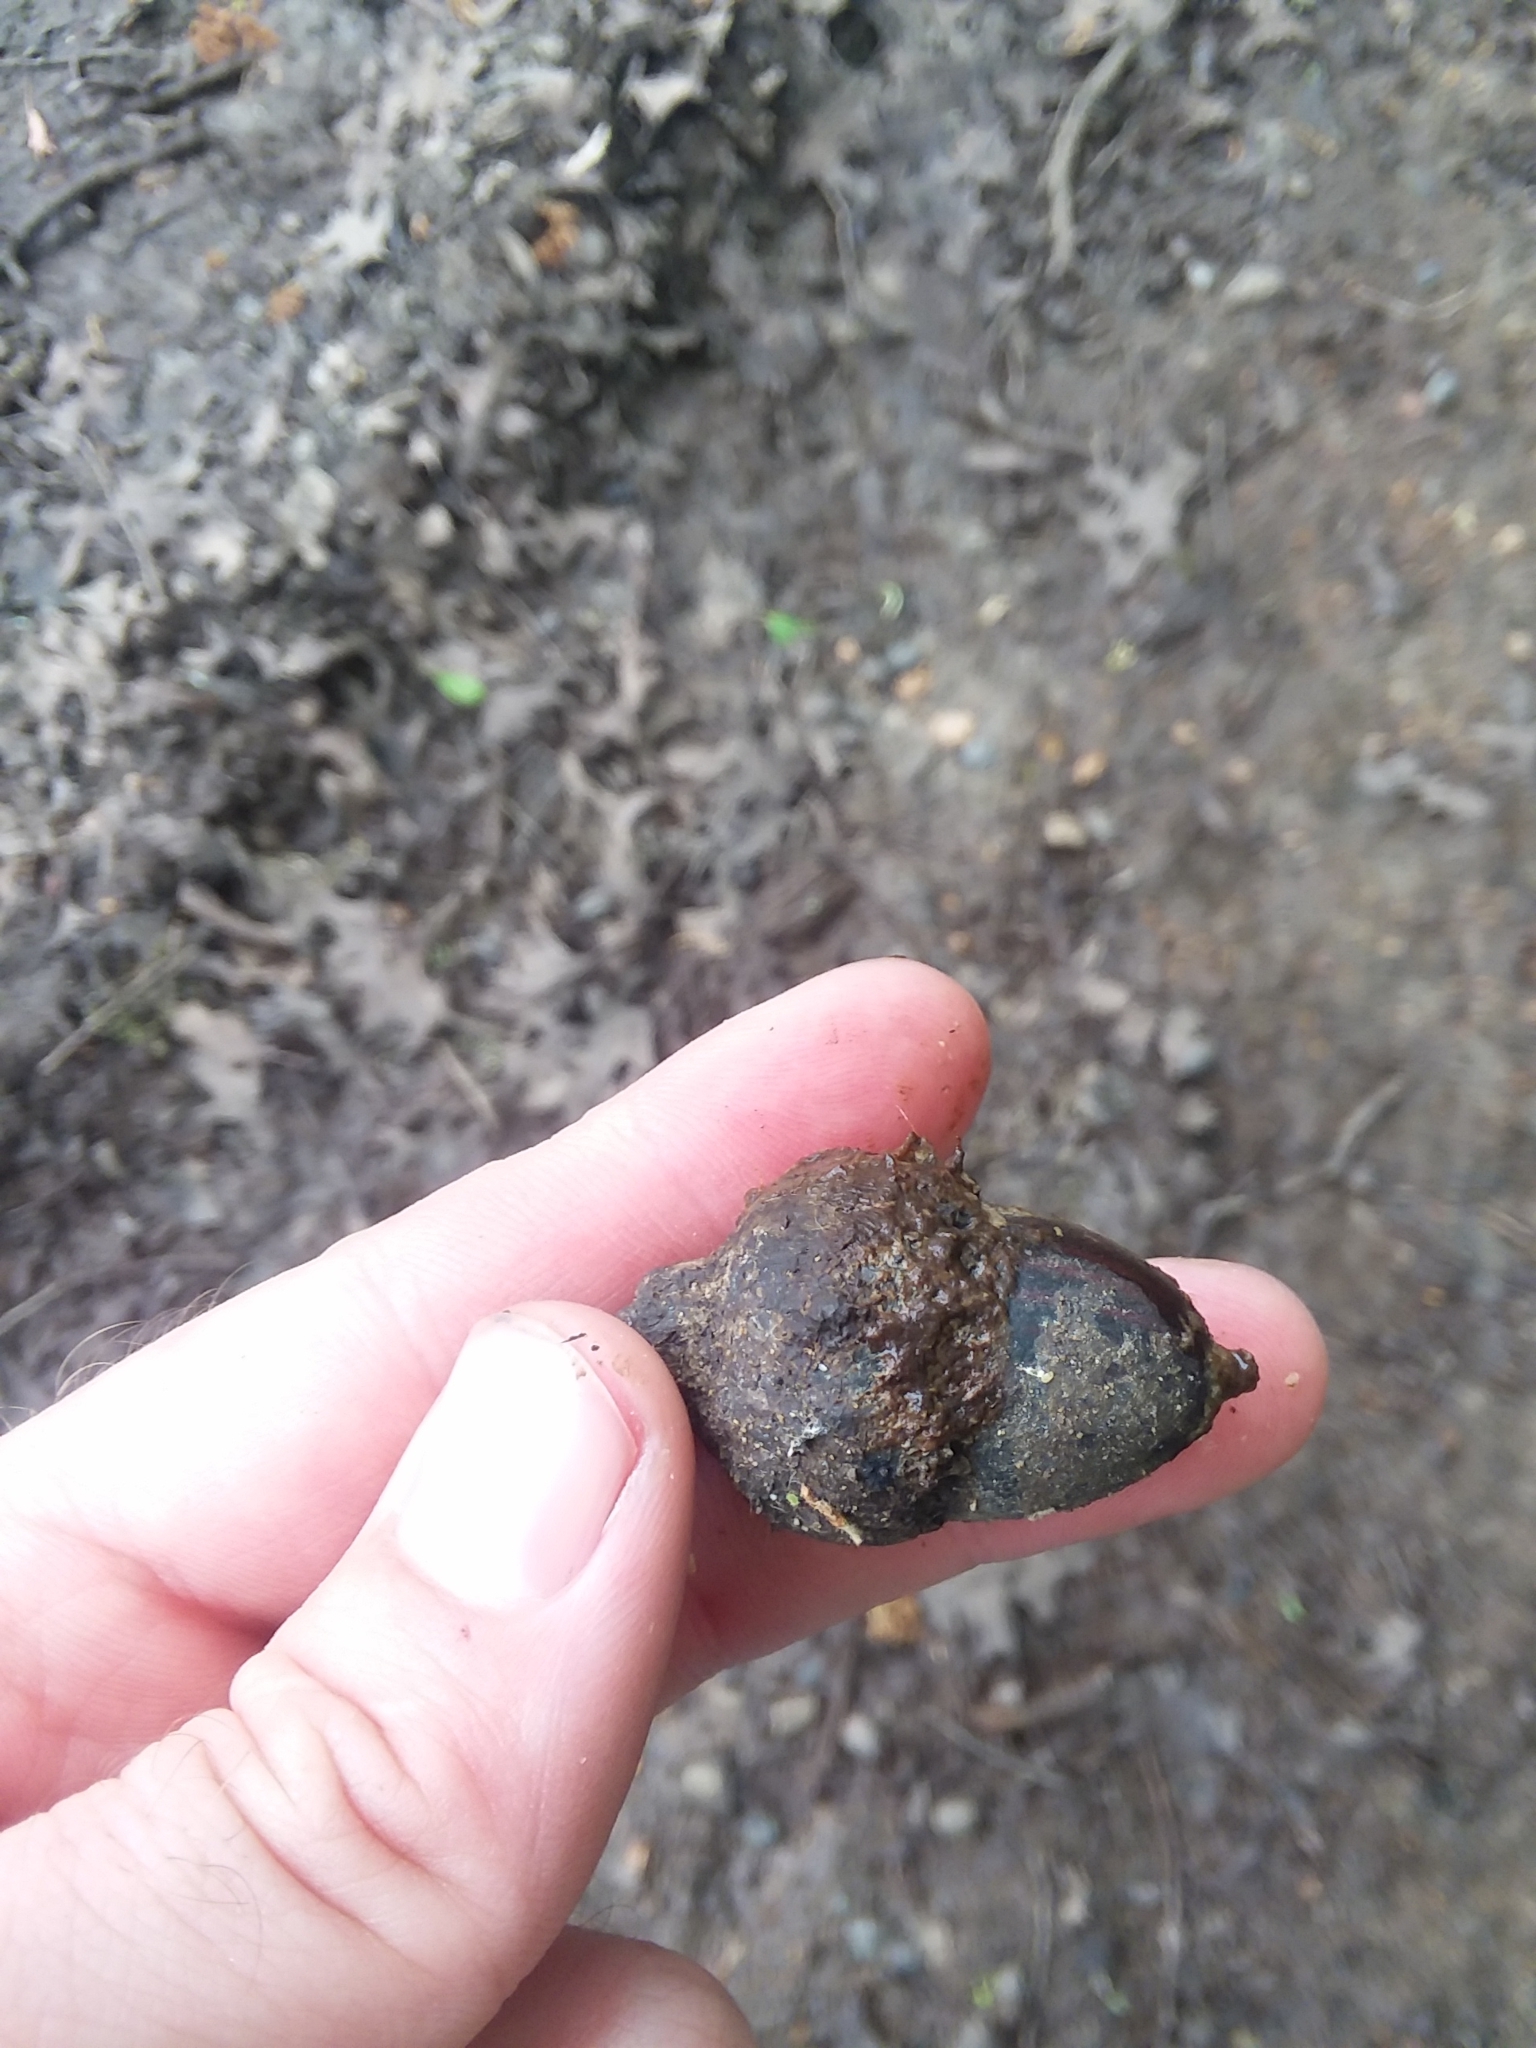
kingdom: Plantae
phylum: Tracheophyta
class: Magnoliopsida
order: Fagales
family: Fagaceae
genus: Quercus
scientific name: Quercus texana
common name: Nuttall oak
